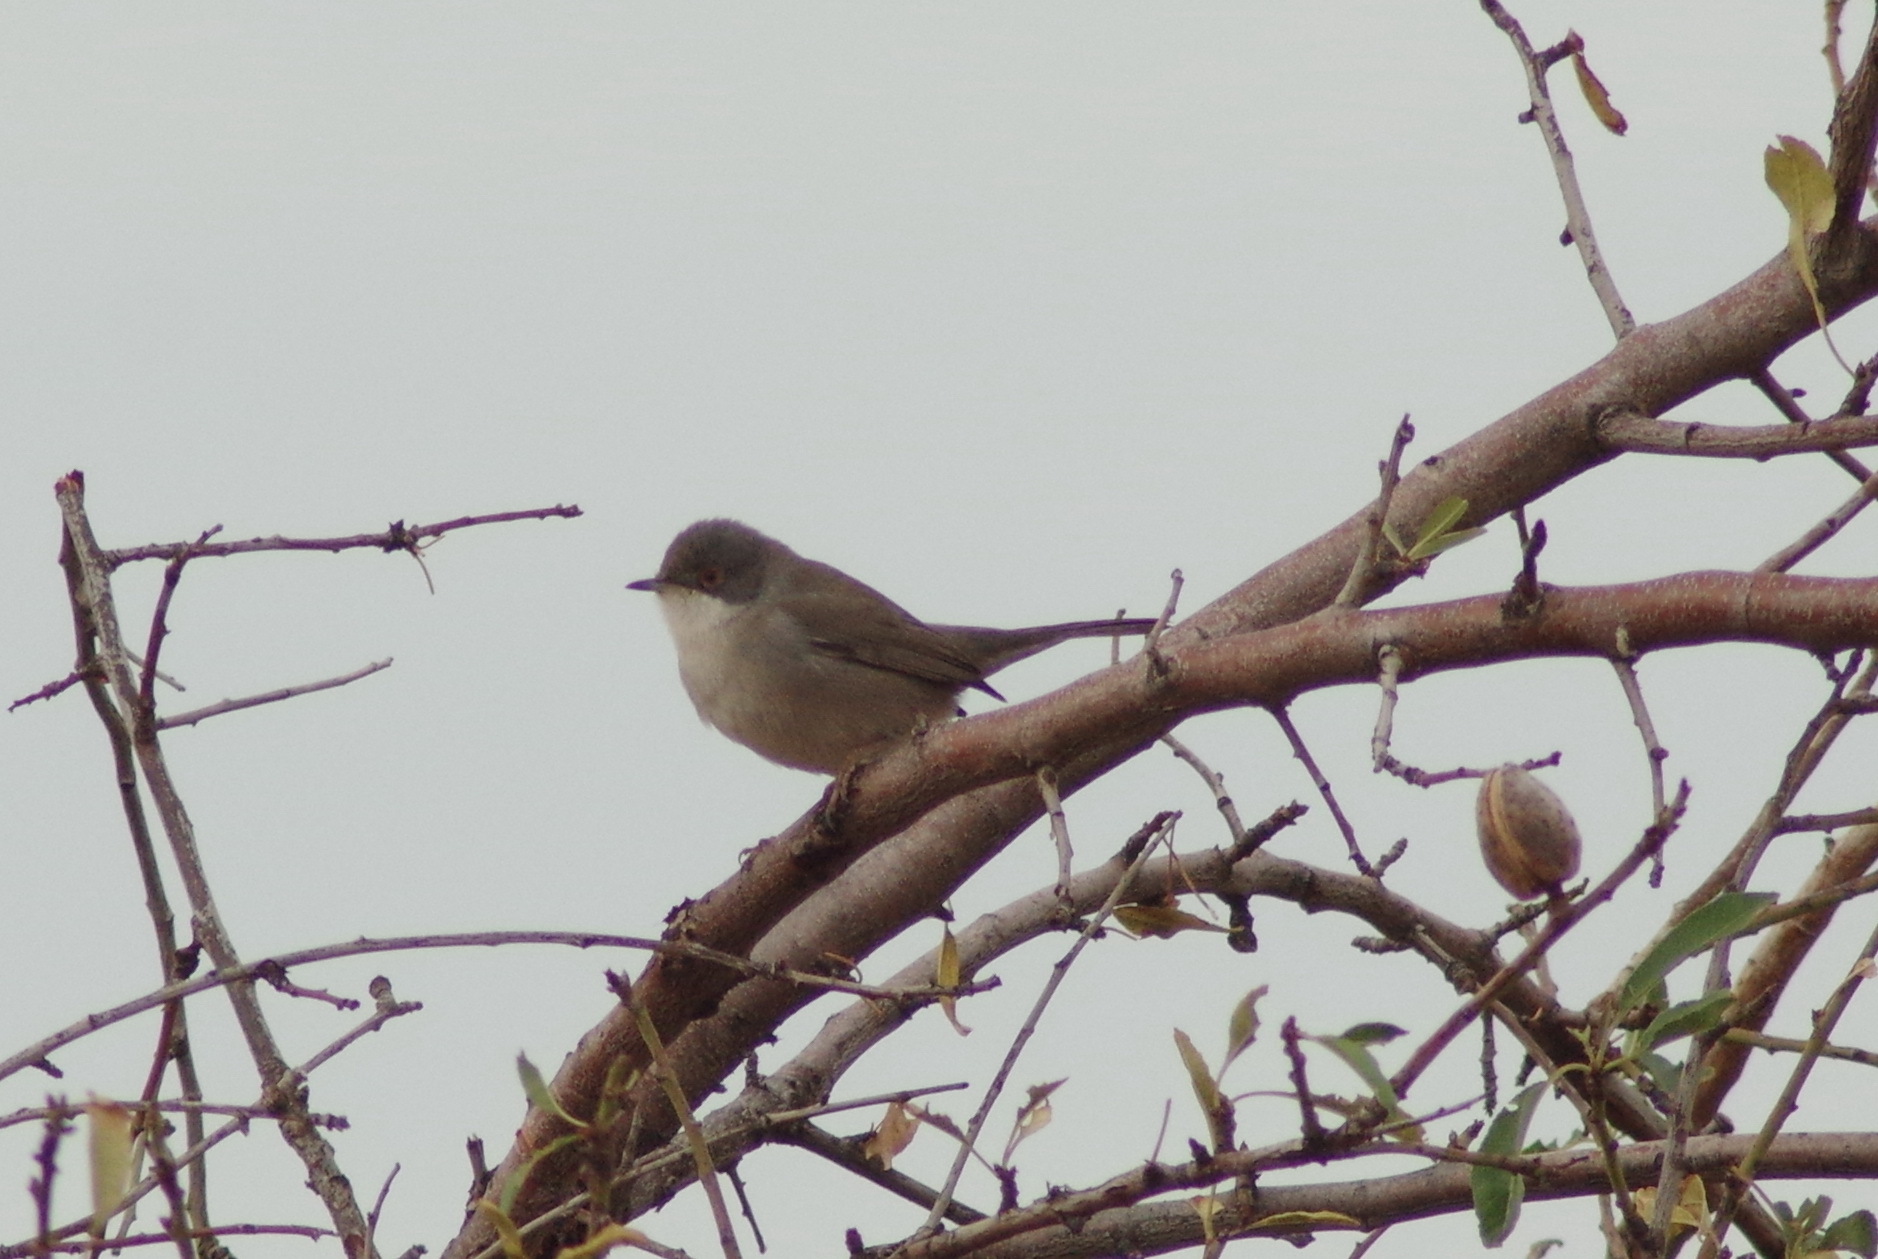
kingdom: Animalia
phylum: Chordata
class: Aves
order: Passeriformes
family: Sylviidae
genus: Curruca
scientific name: Curruca melanocephala
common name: Sardinian warbler
